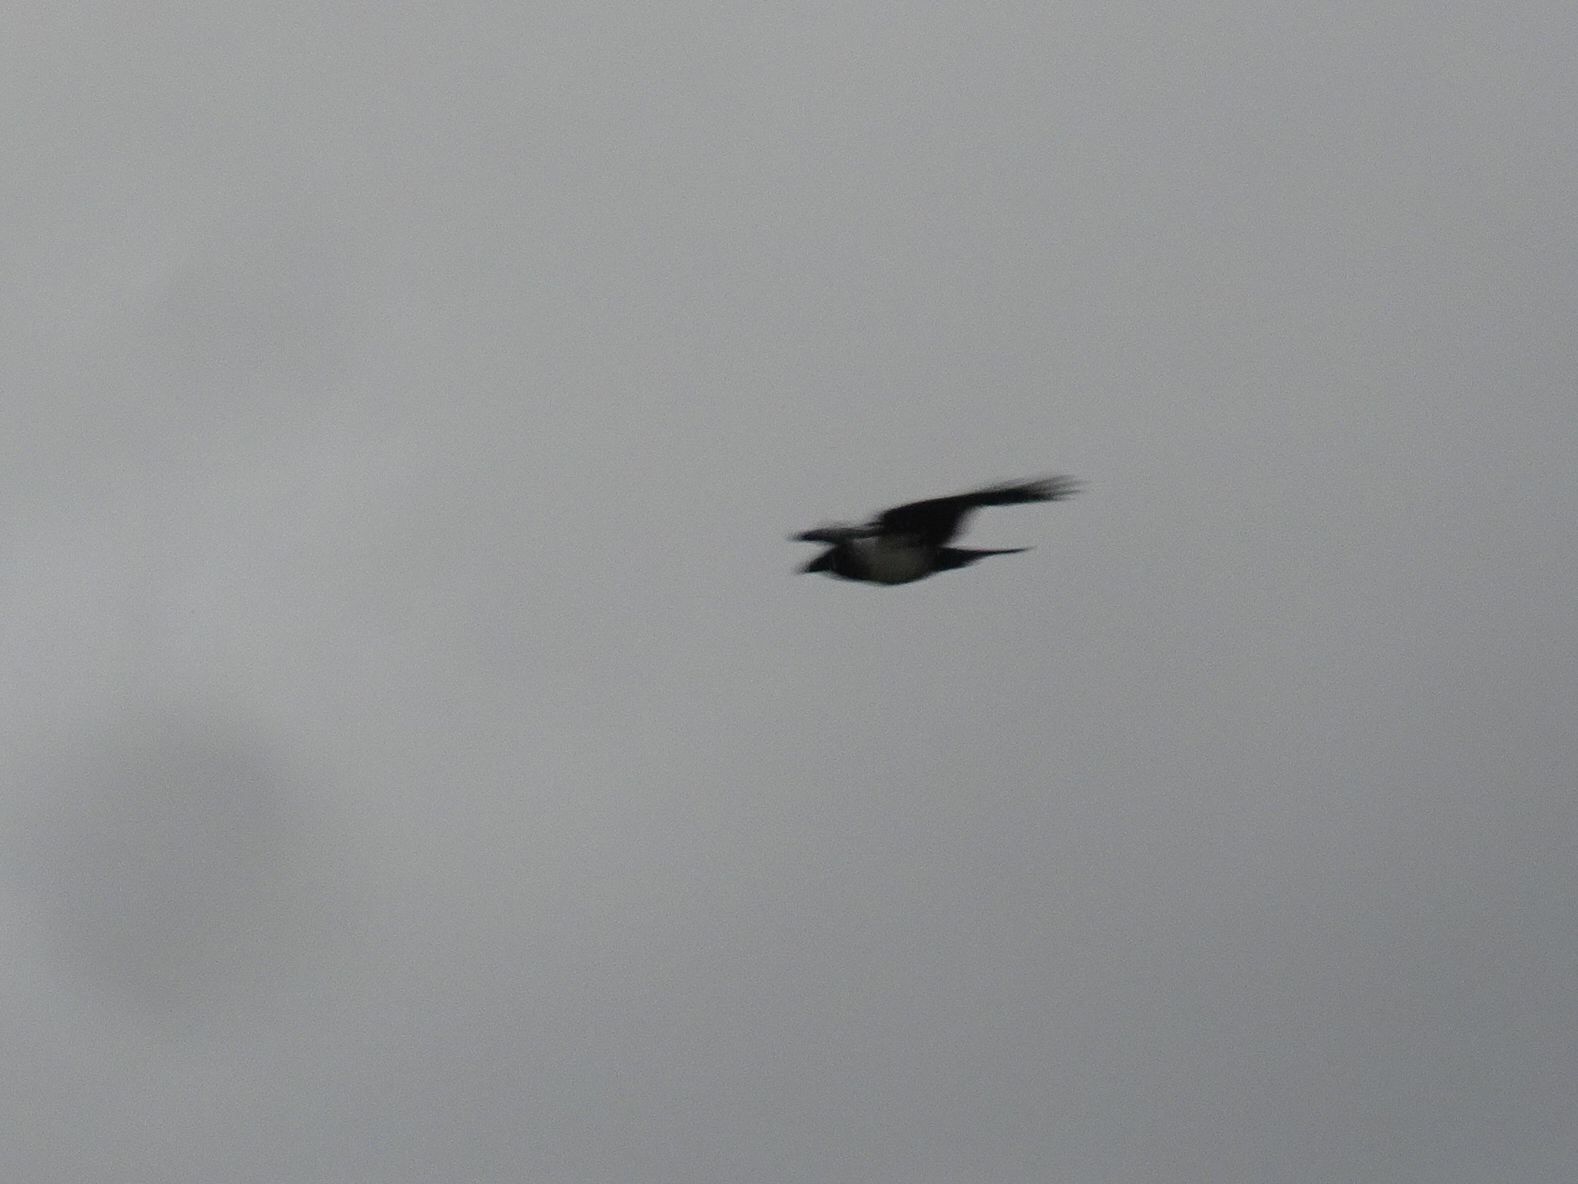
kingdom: Animalia
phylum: Chordata
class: Aves
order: Passeriformes
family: Corvidae
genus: Corvus
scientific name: Corvus albus
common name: Pied crow
